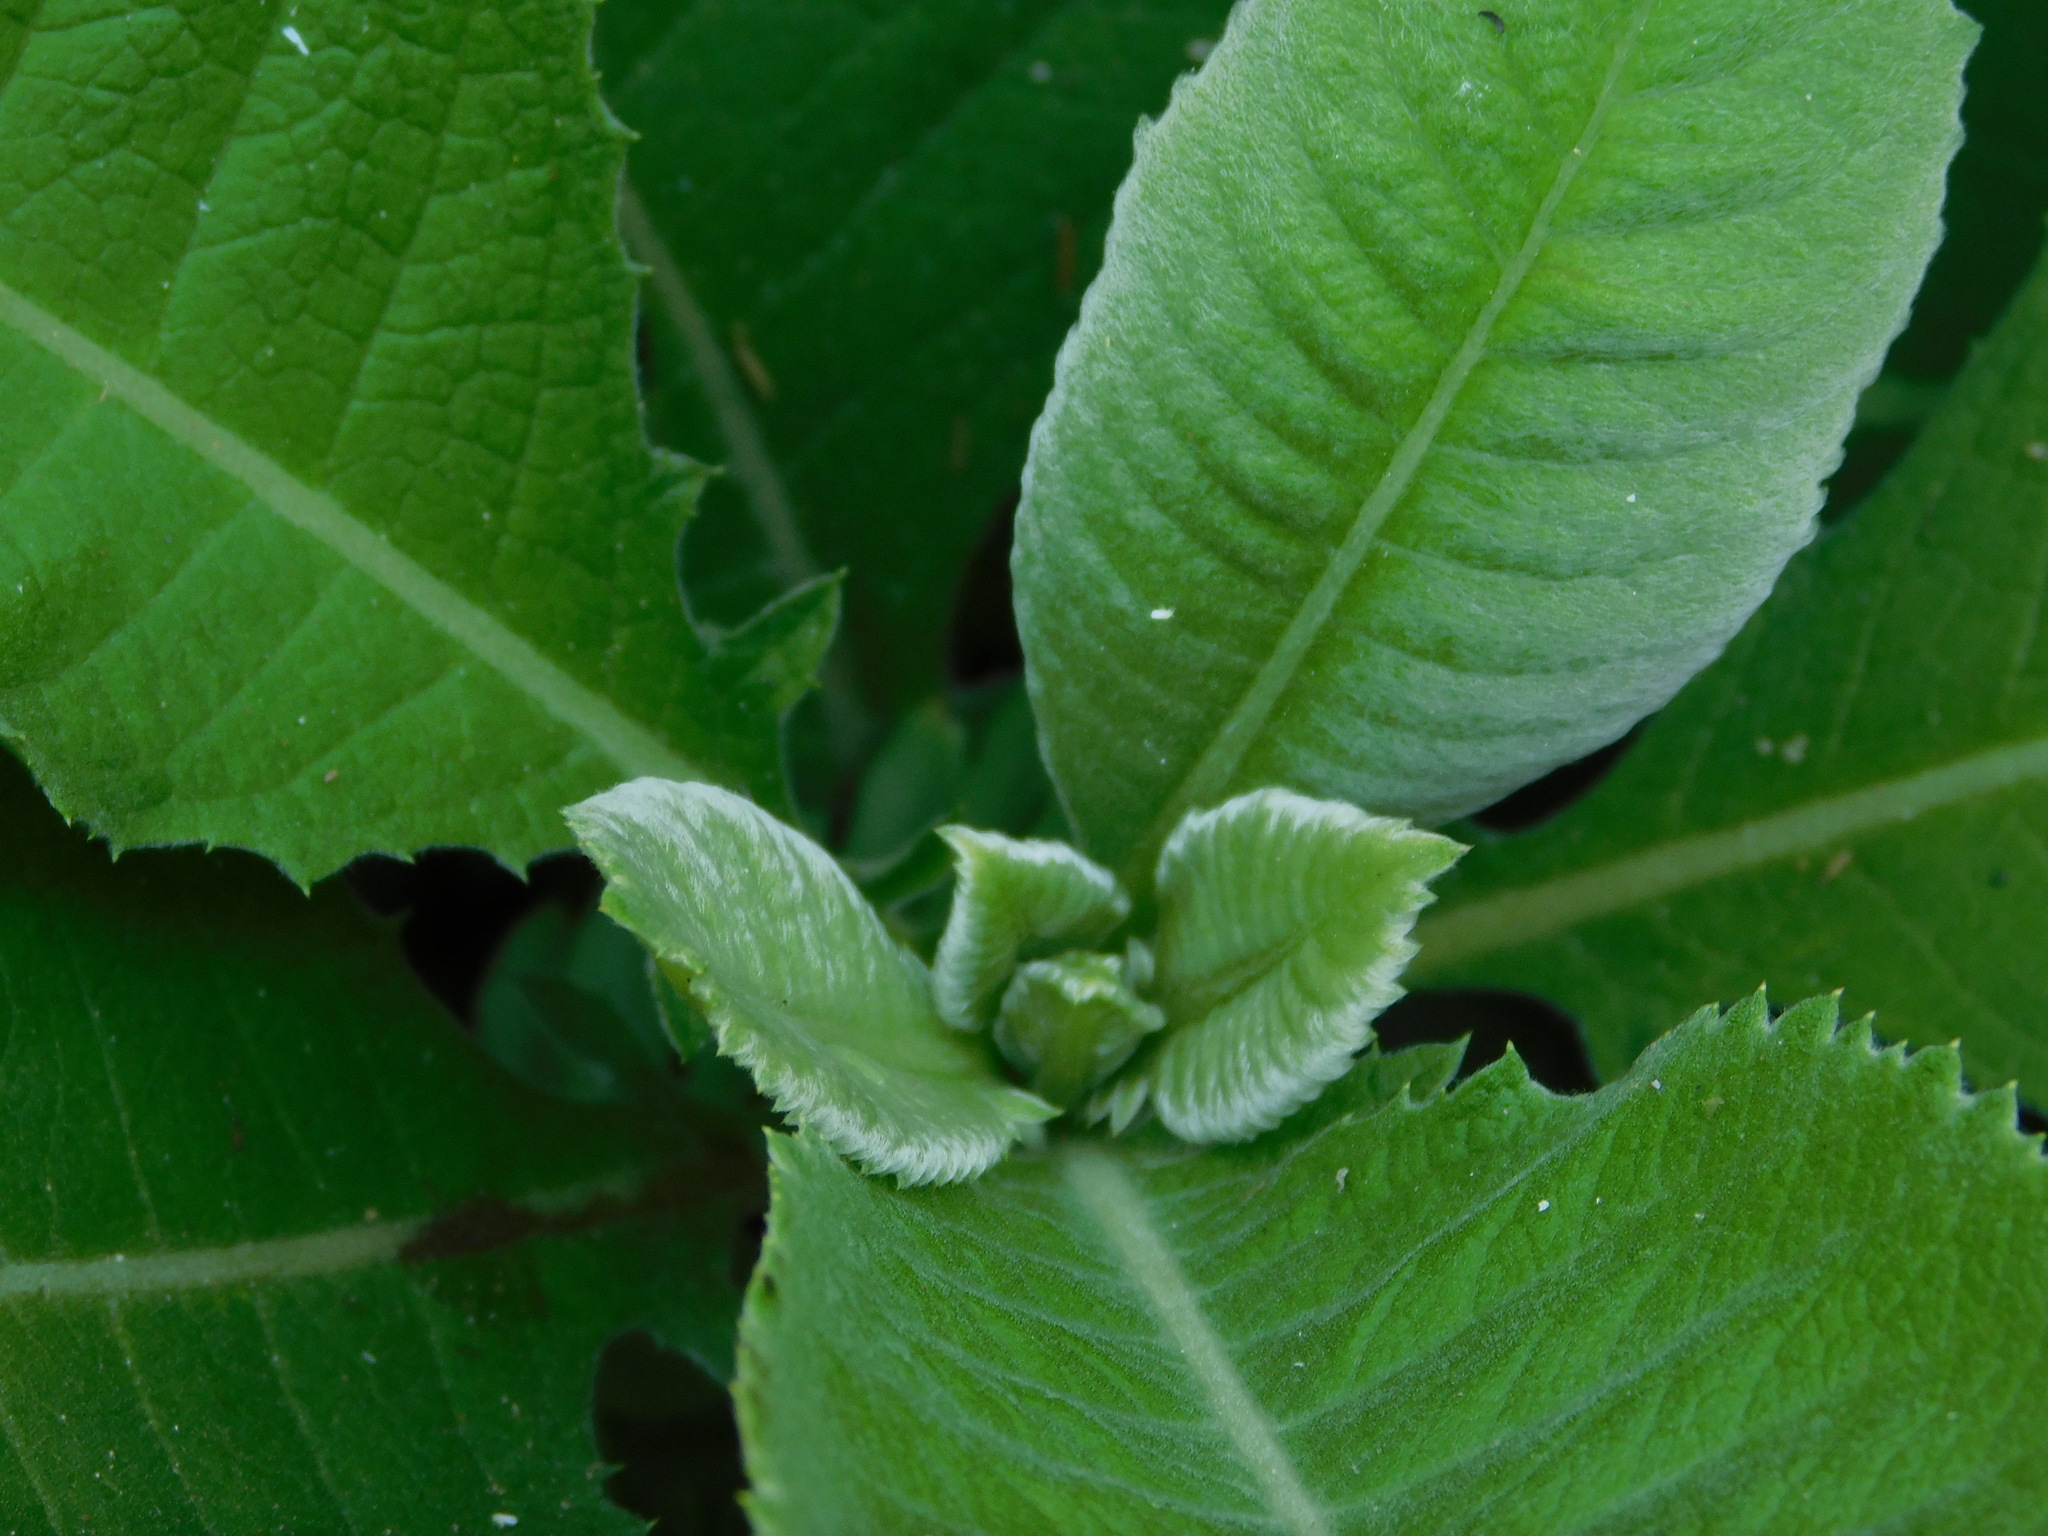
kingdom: Plantae
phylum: Tracheophyta
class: Magnoliopsida
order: Asterales
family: Asteraceae
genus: Blumea
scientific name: Blumea balsamifera
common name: Ngai camphor
